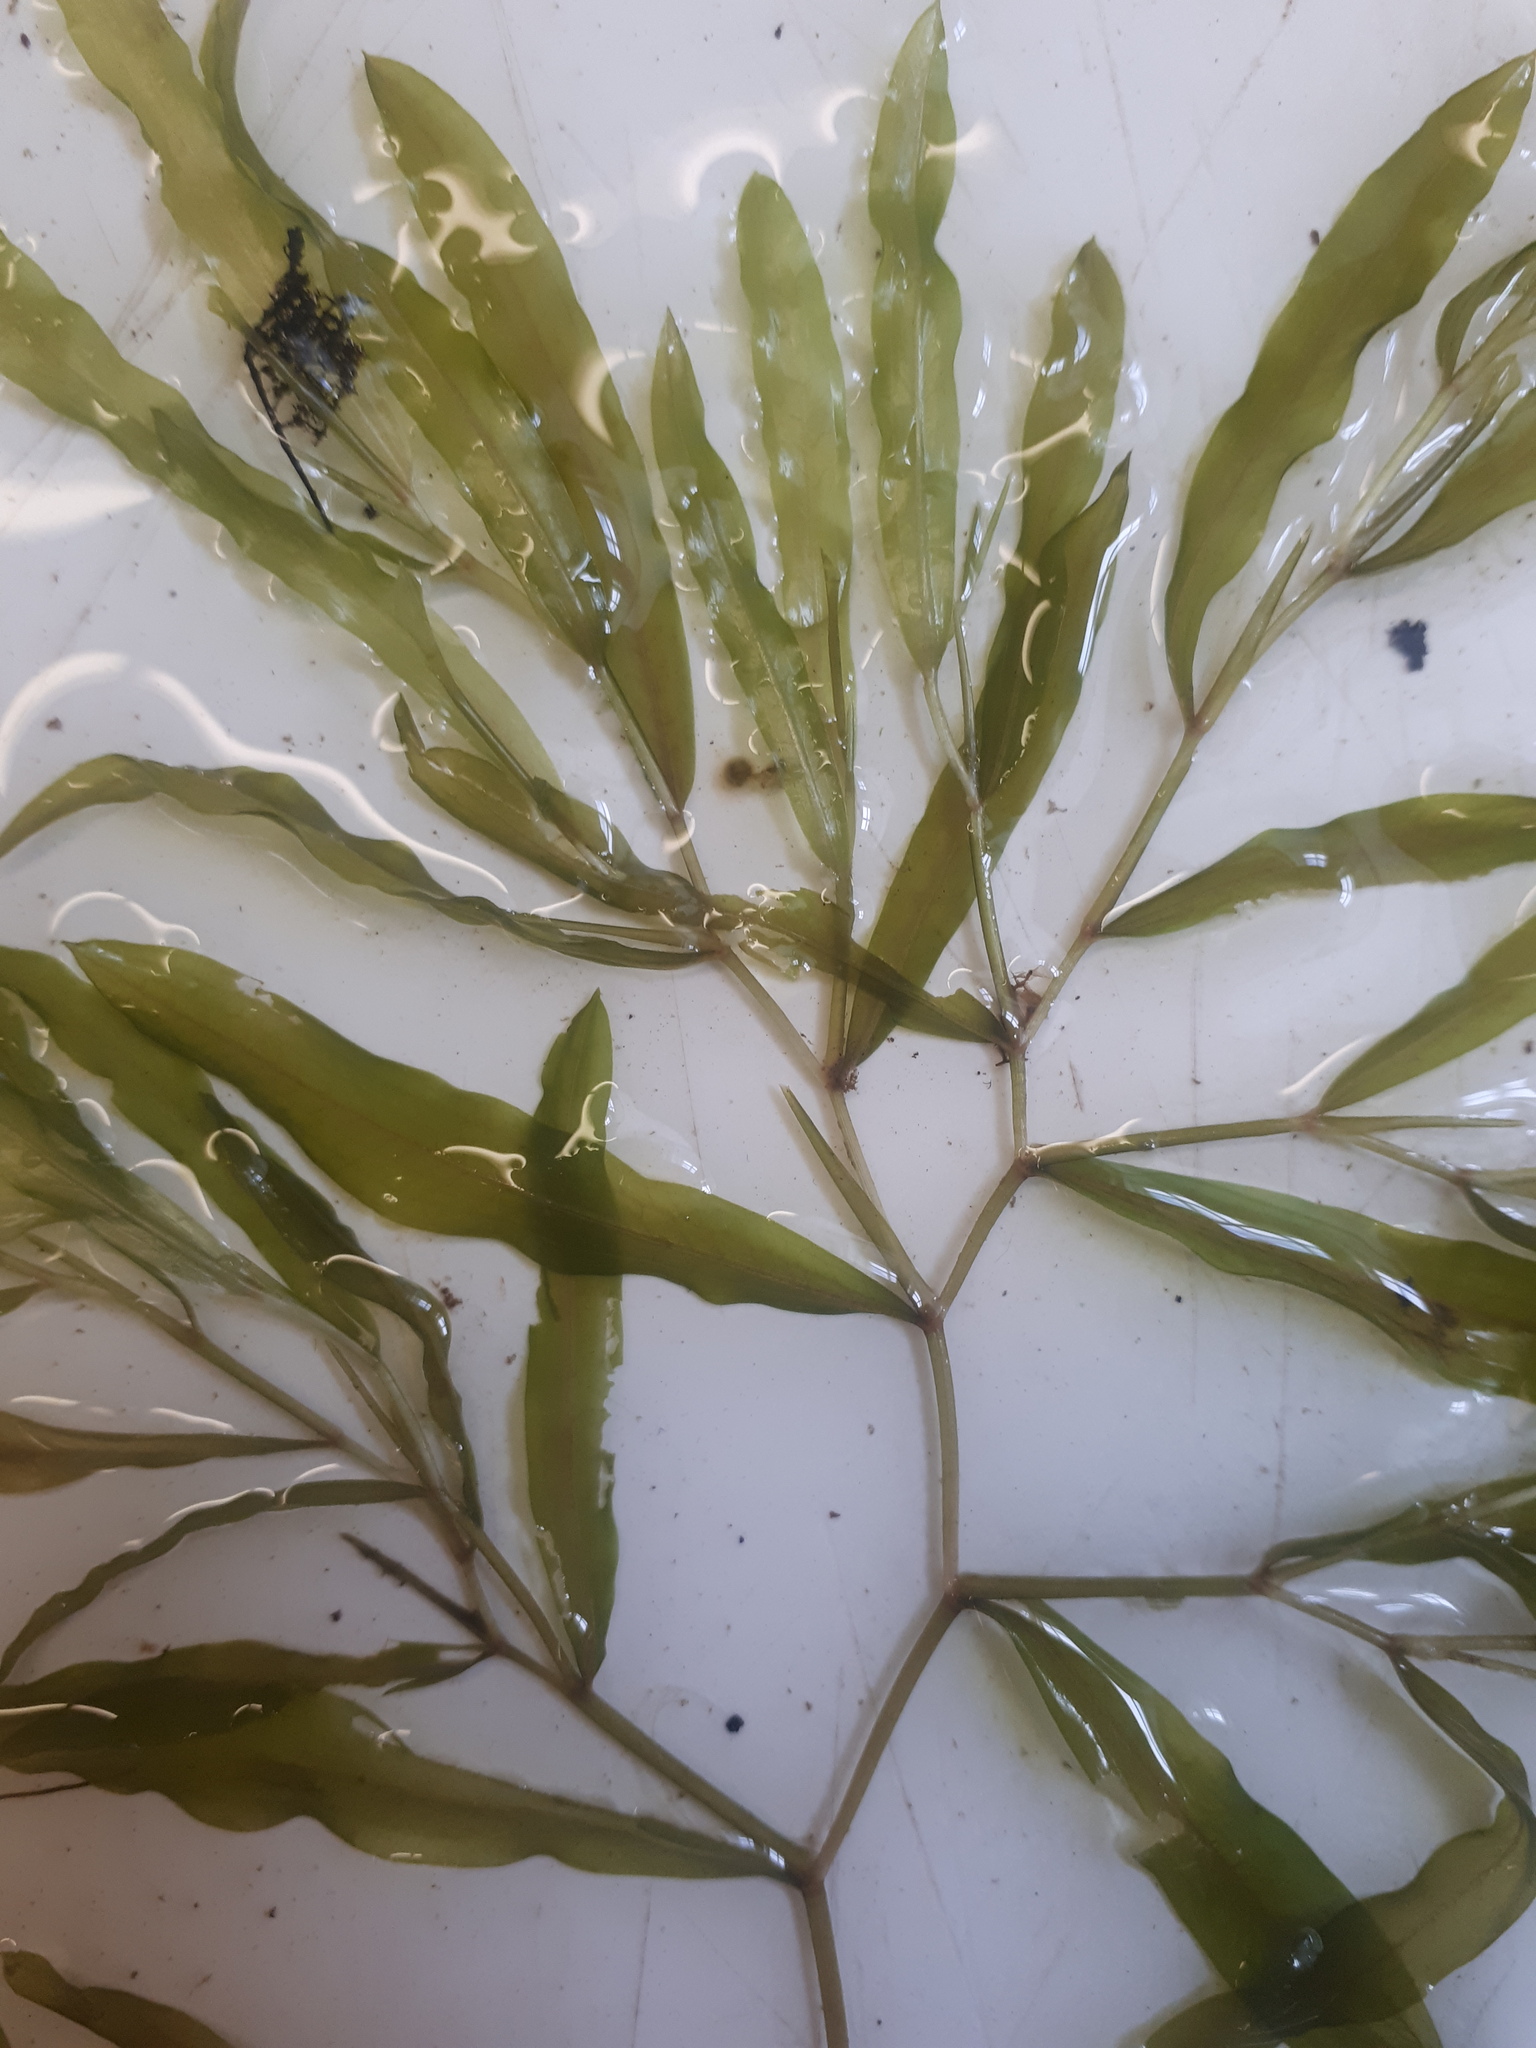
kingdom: Plantae
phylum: Tracheophyta
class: Liliopsida
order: Alismatales
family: Potamogetonaceae
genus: Potamogeton
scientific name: Potamogeton gramineus
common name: Various-leaved pondweed
